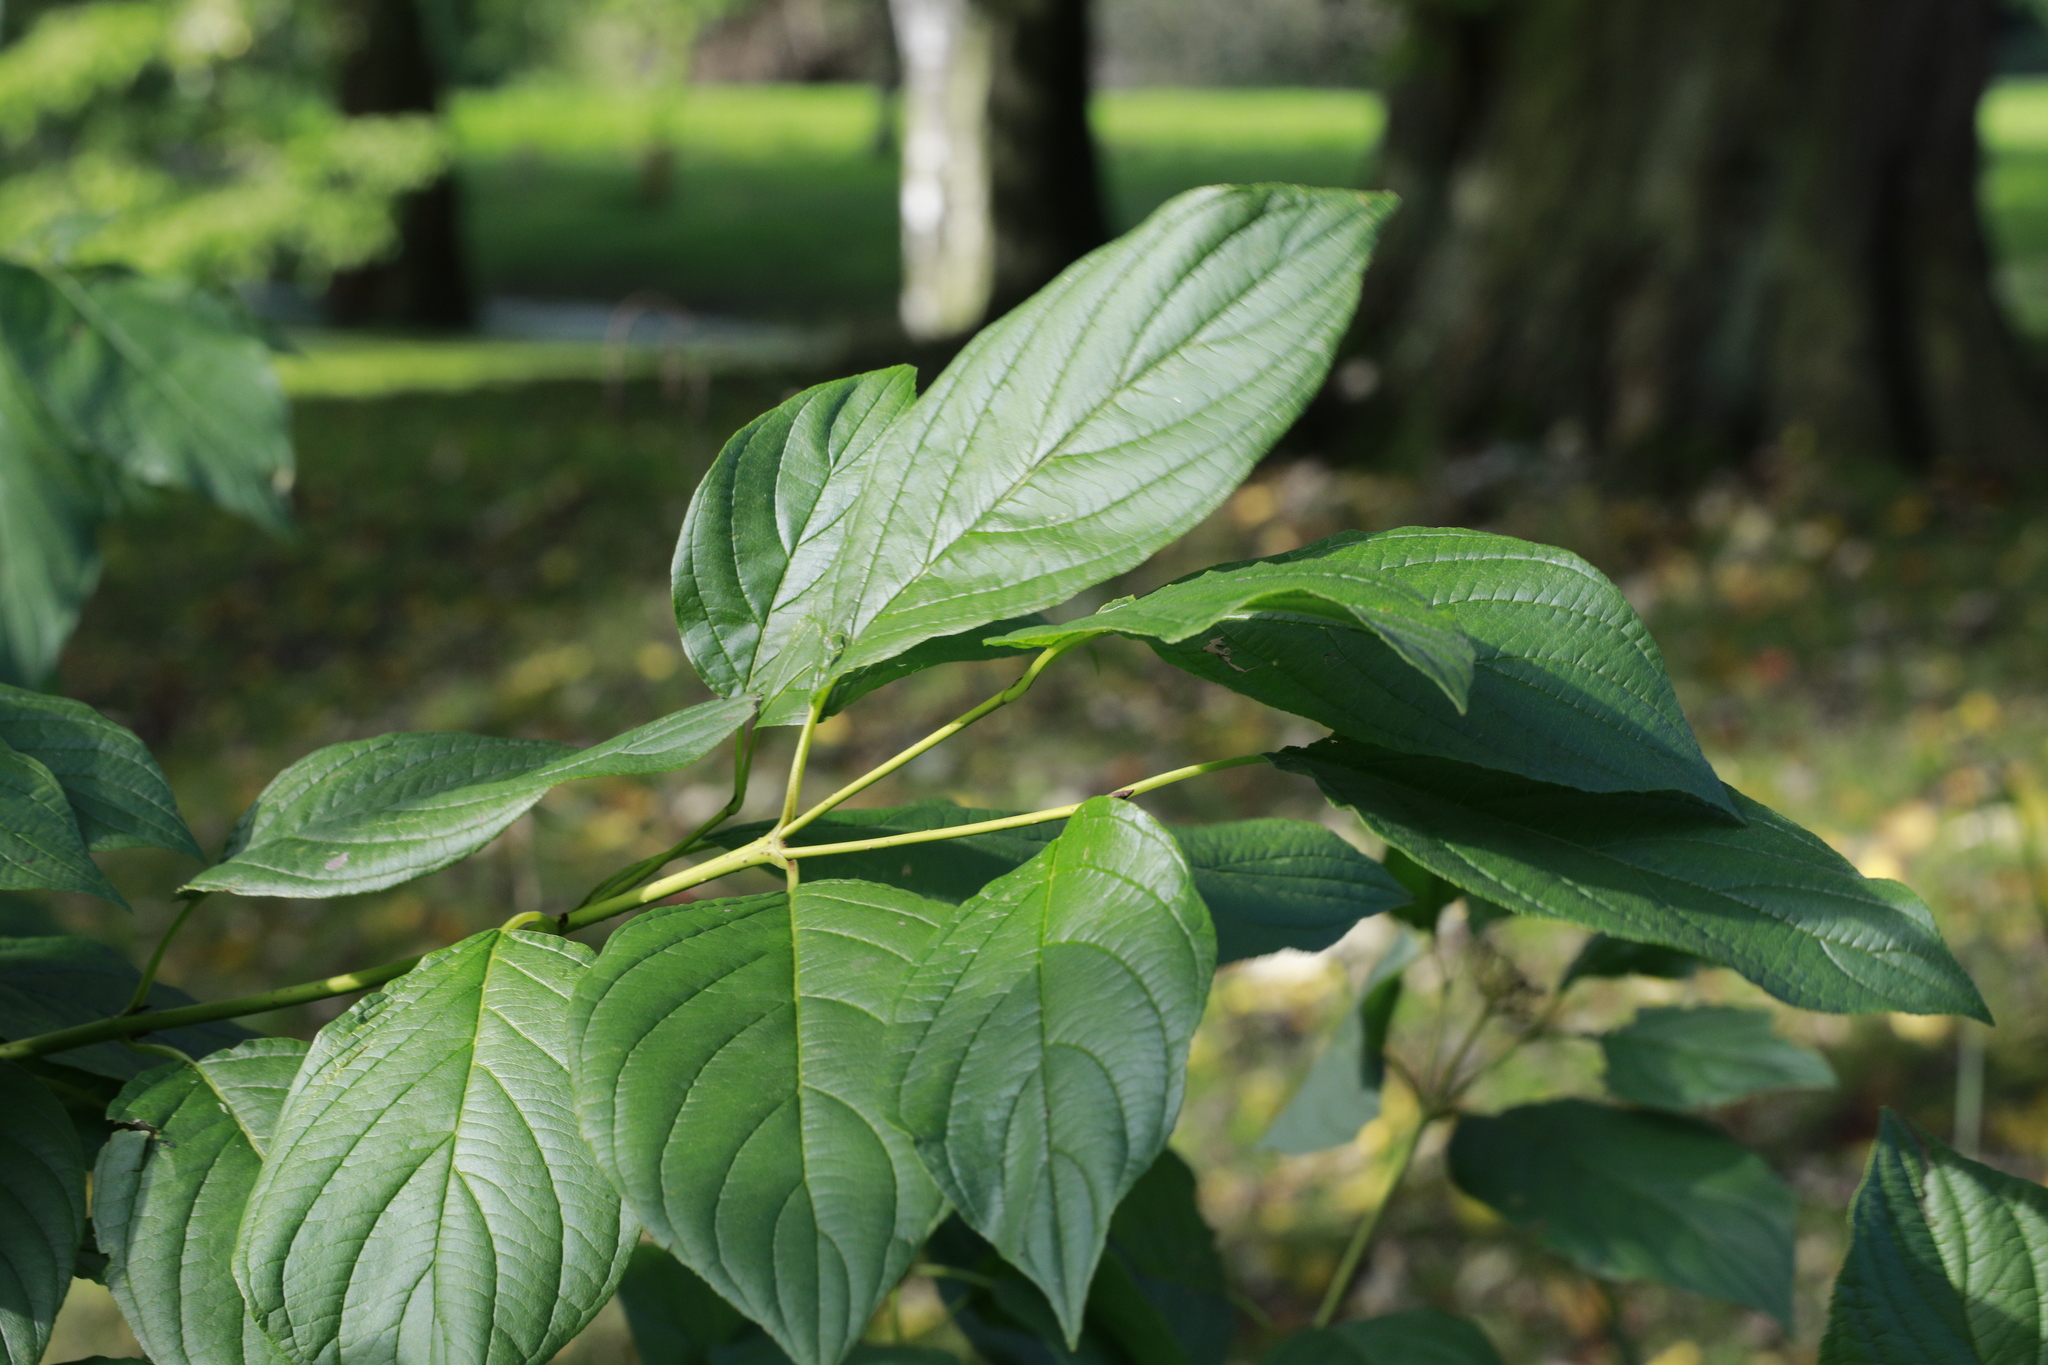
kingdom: Plantae
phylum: Tracheophyta
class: Magnoliopsida
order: Cornales
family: Cornaceae
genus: Cornus
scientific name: Cornus sanguinea
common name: Dogwood
